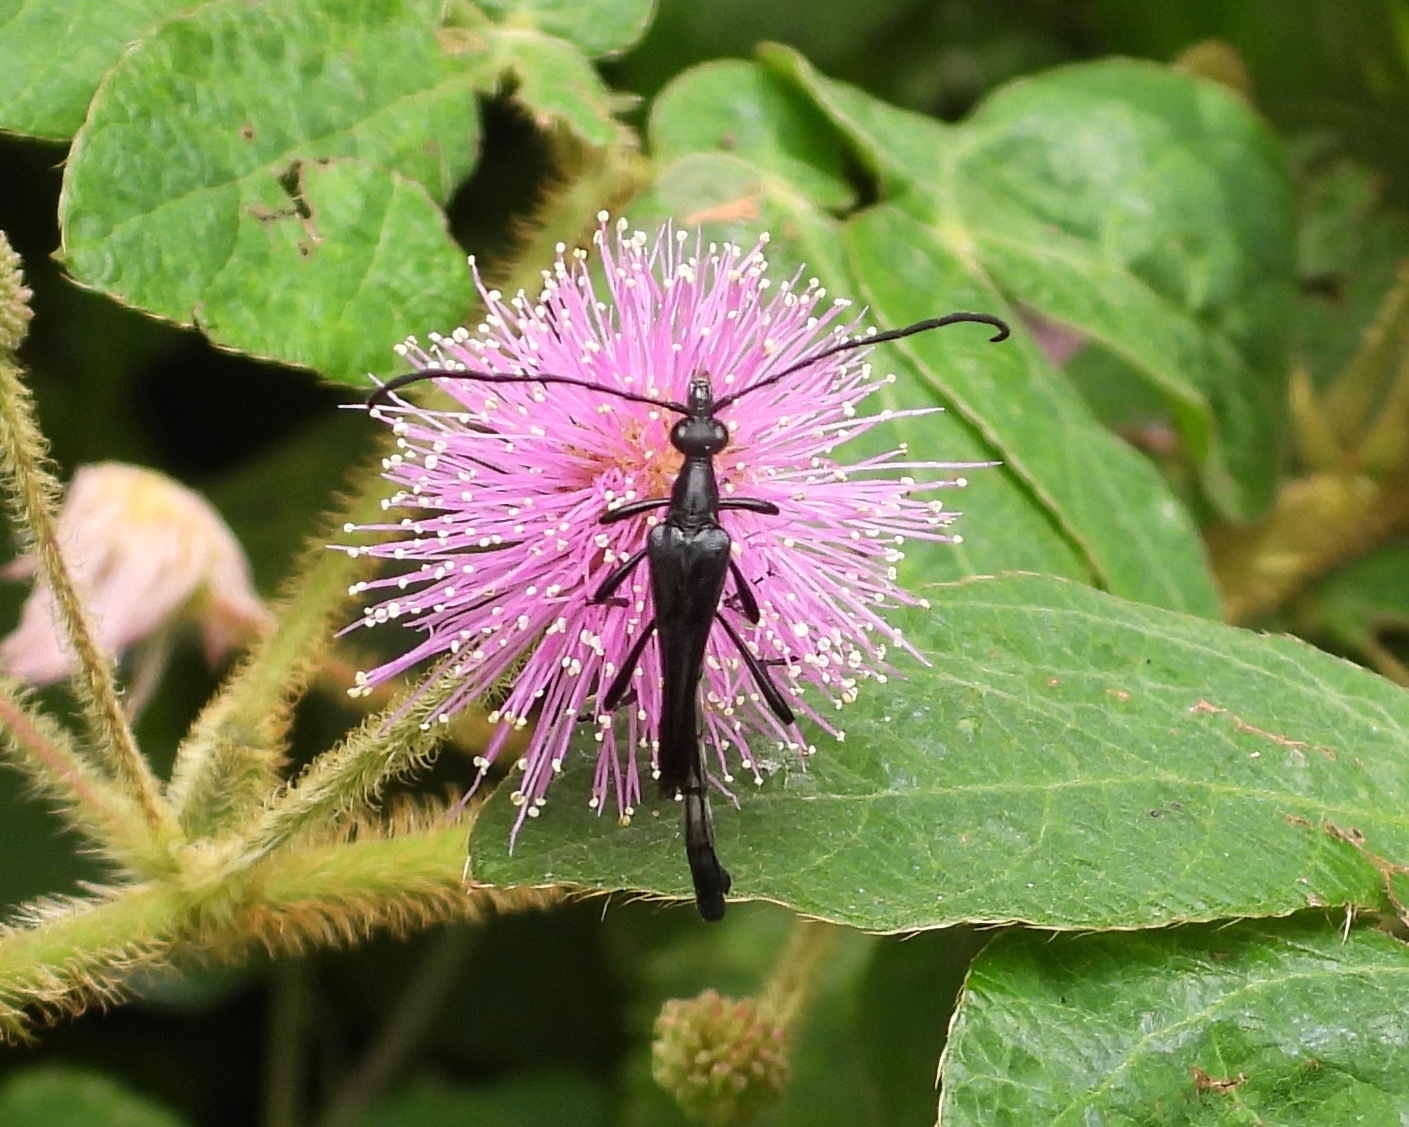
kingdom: Animalia
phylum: Arthropoda
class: Insecta
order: Coleoptera
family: Cerambycidae
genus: Strangalia
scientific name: Strangalia melampus
